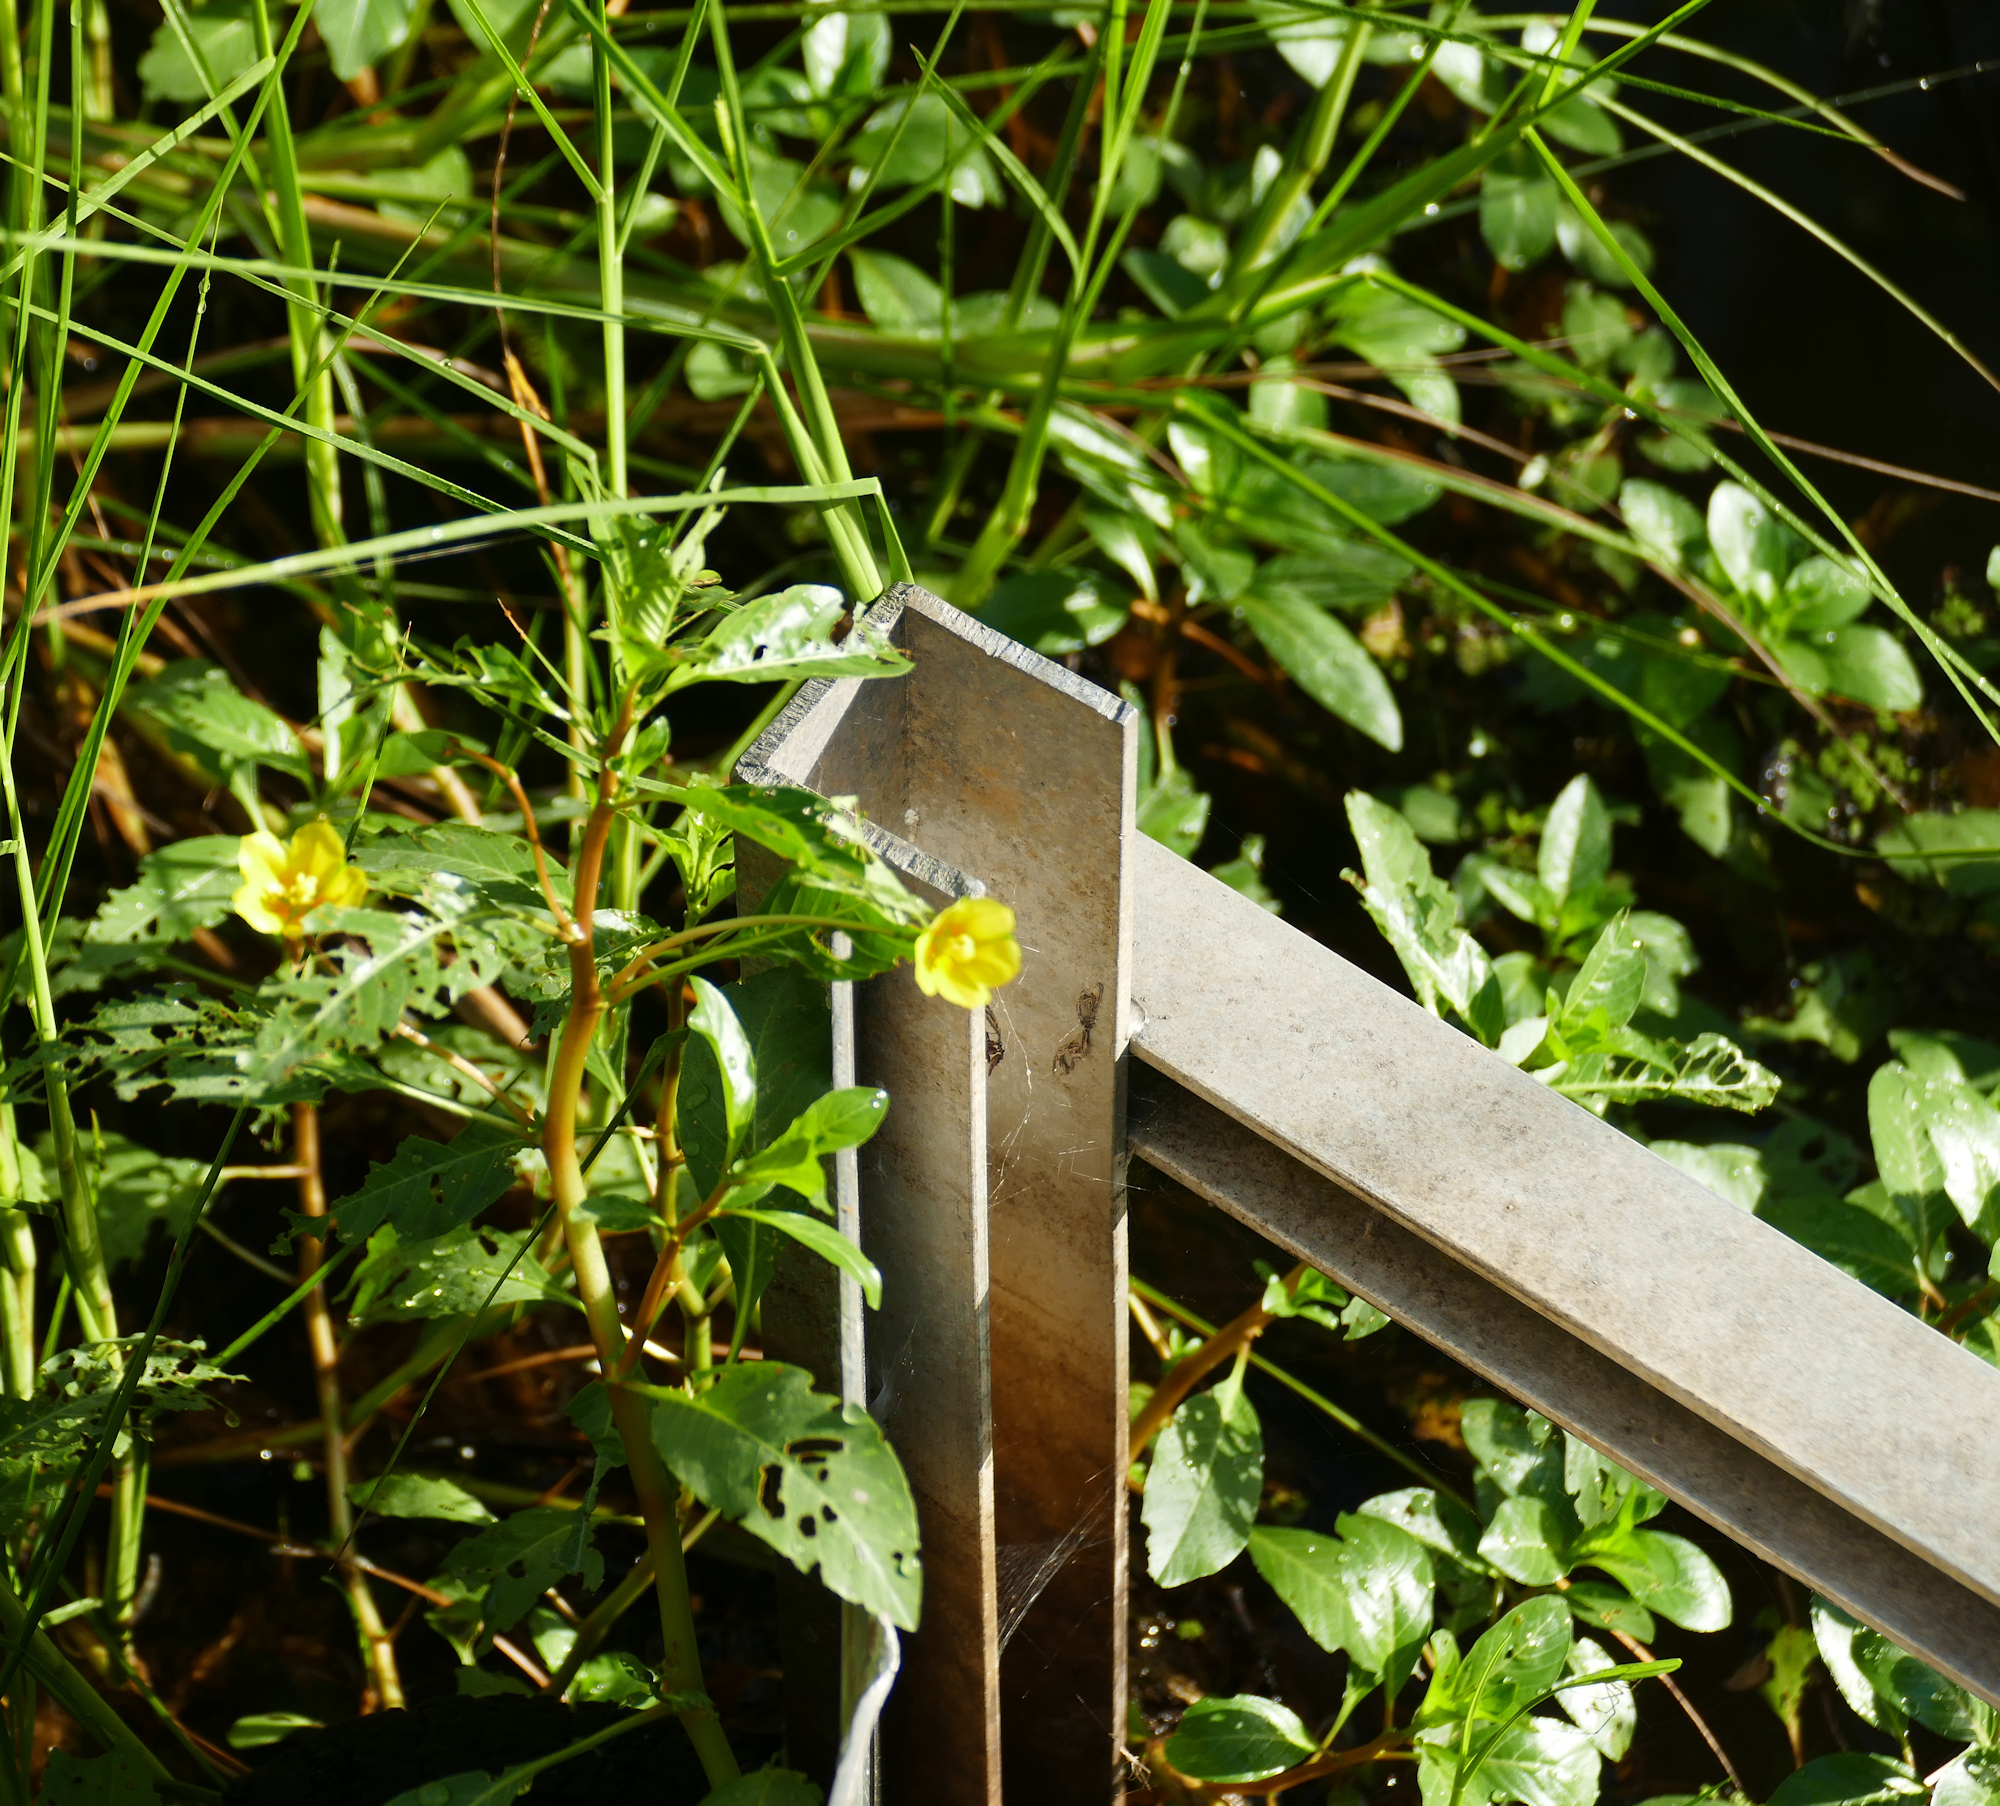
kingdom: Plantae
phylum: Tracheophyta
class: Magnoliopsida
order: Myrtales
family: Onagraceae
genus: Ludwigia
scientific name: Ludwigia peploides
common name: Floating primrose-willow
